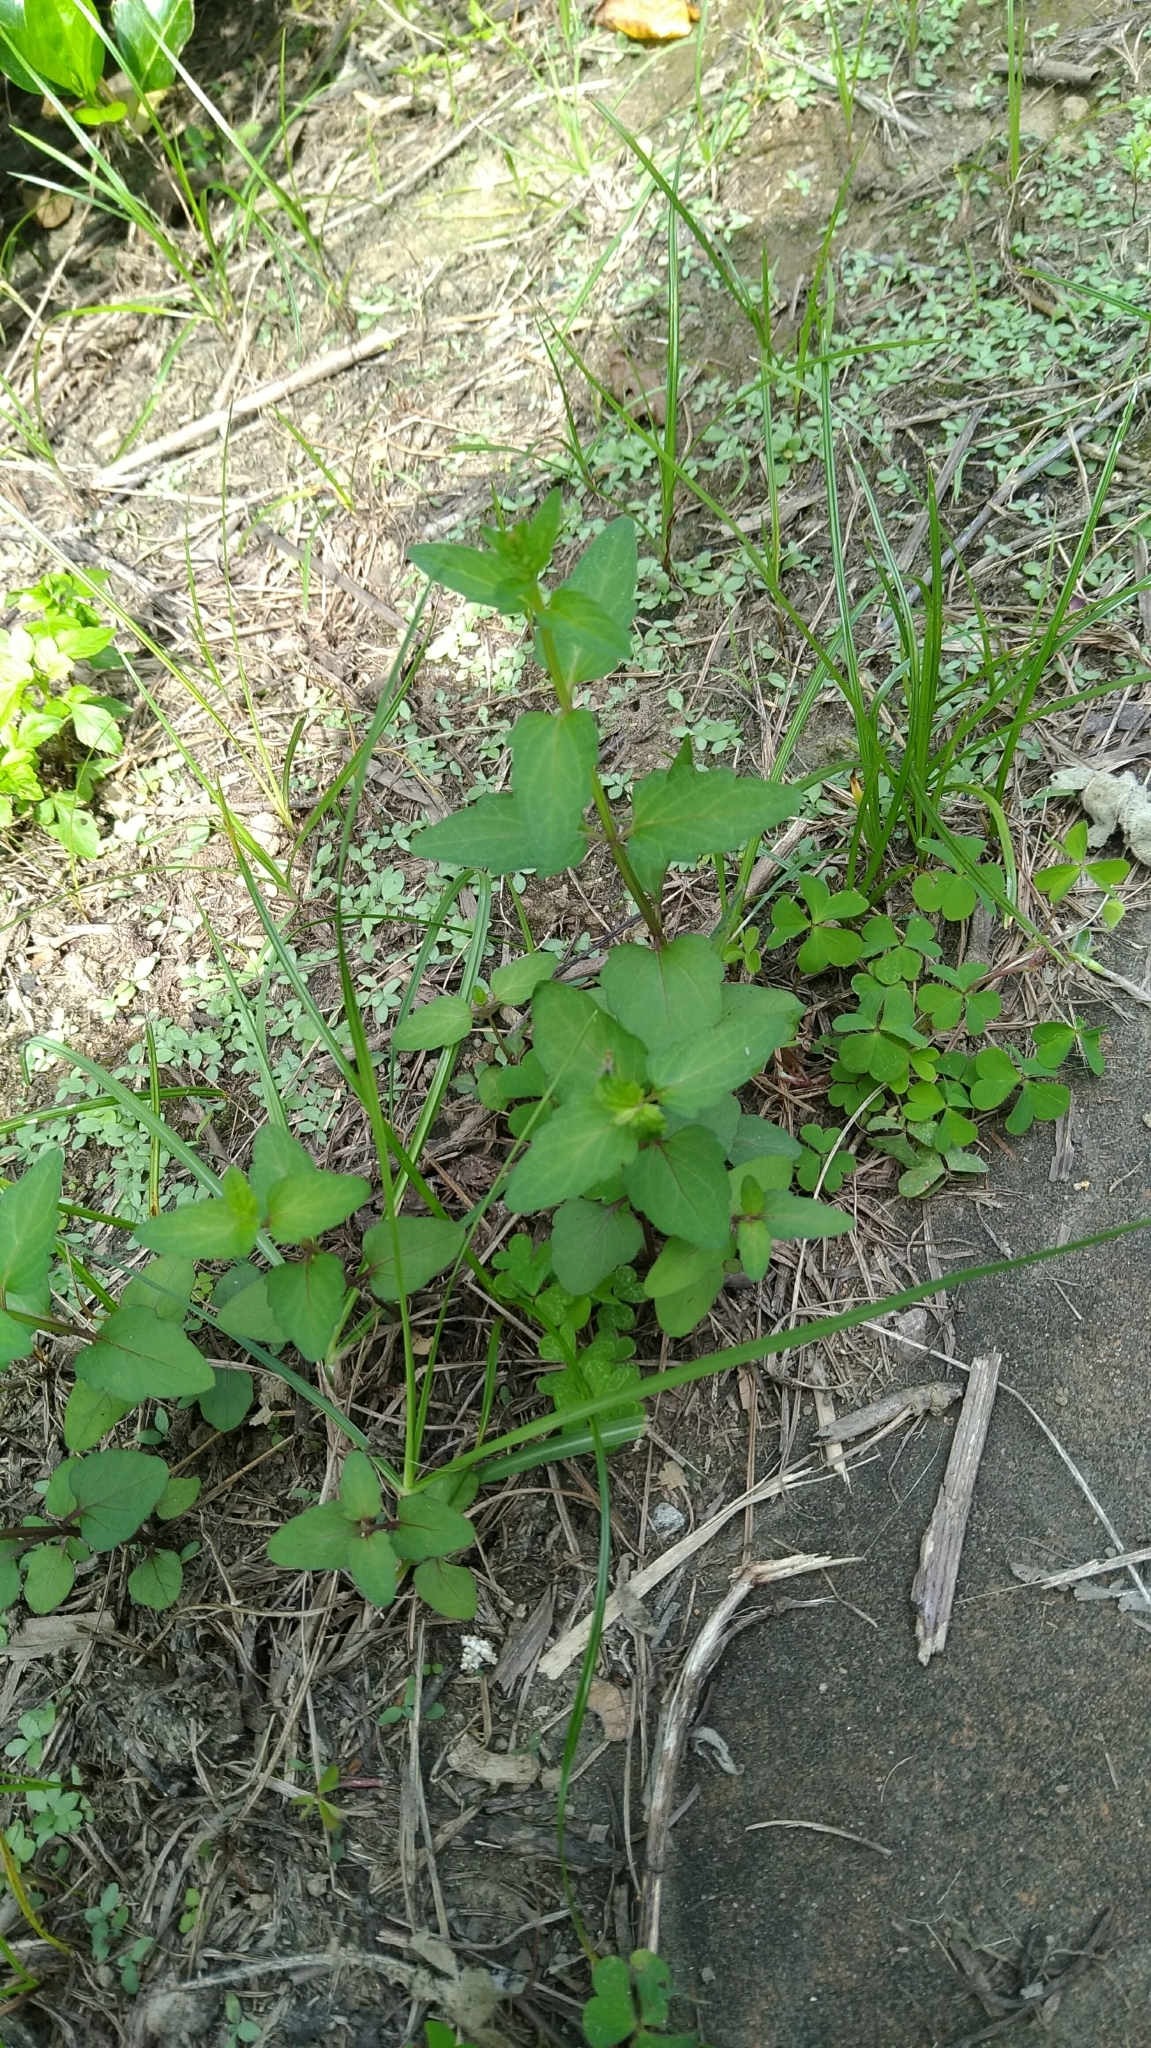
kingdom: Plantae
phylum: Tracheophyta
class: Magnoliopsida
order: Lamiales
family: Lamiaceae
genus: Scutellaria
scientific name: Scutellaria barbata
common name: Barbed skullcap
